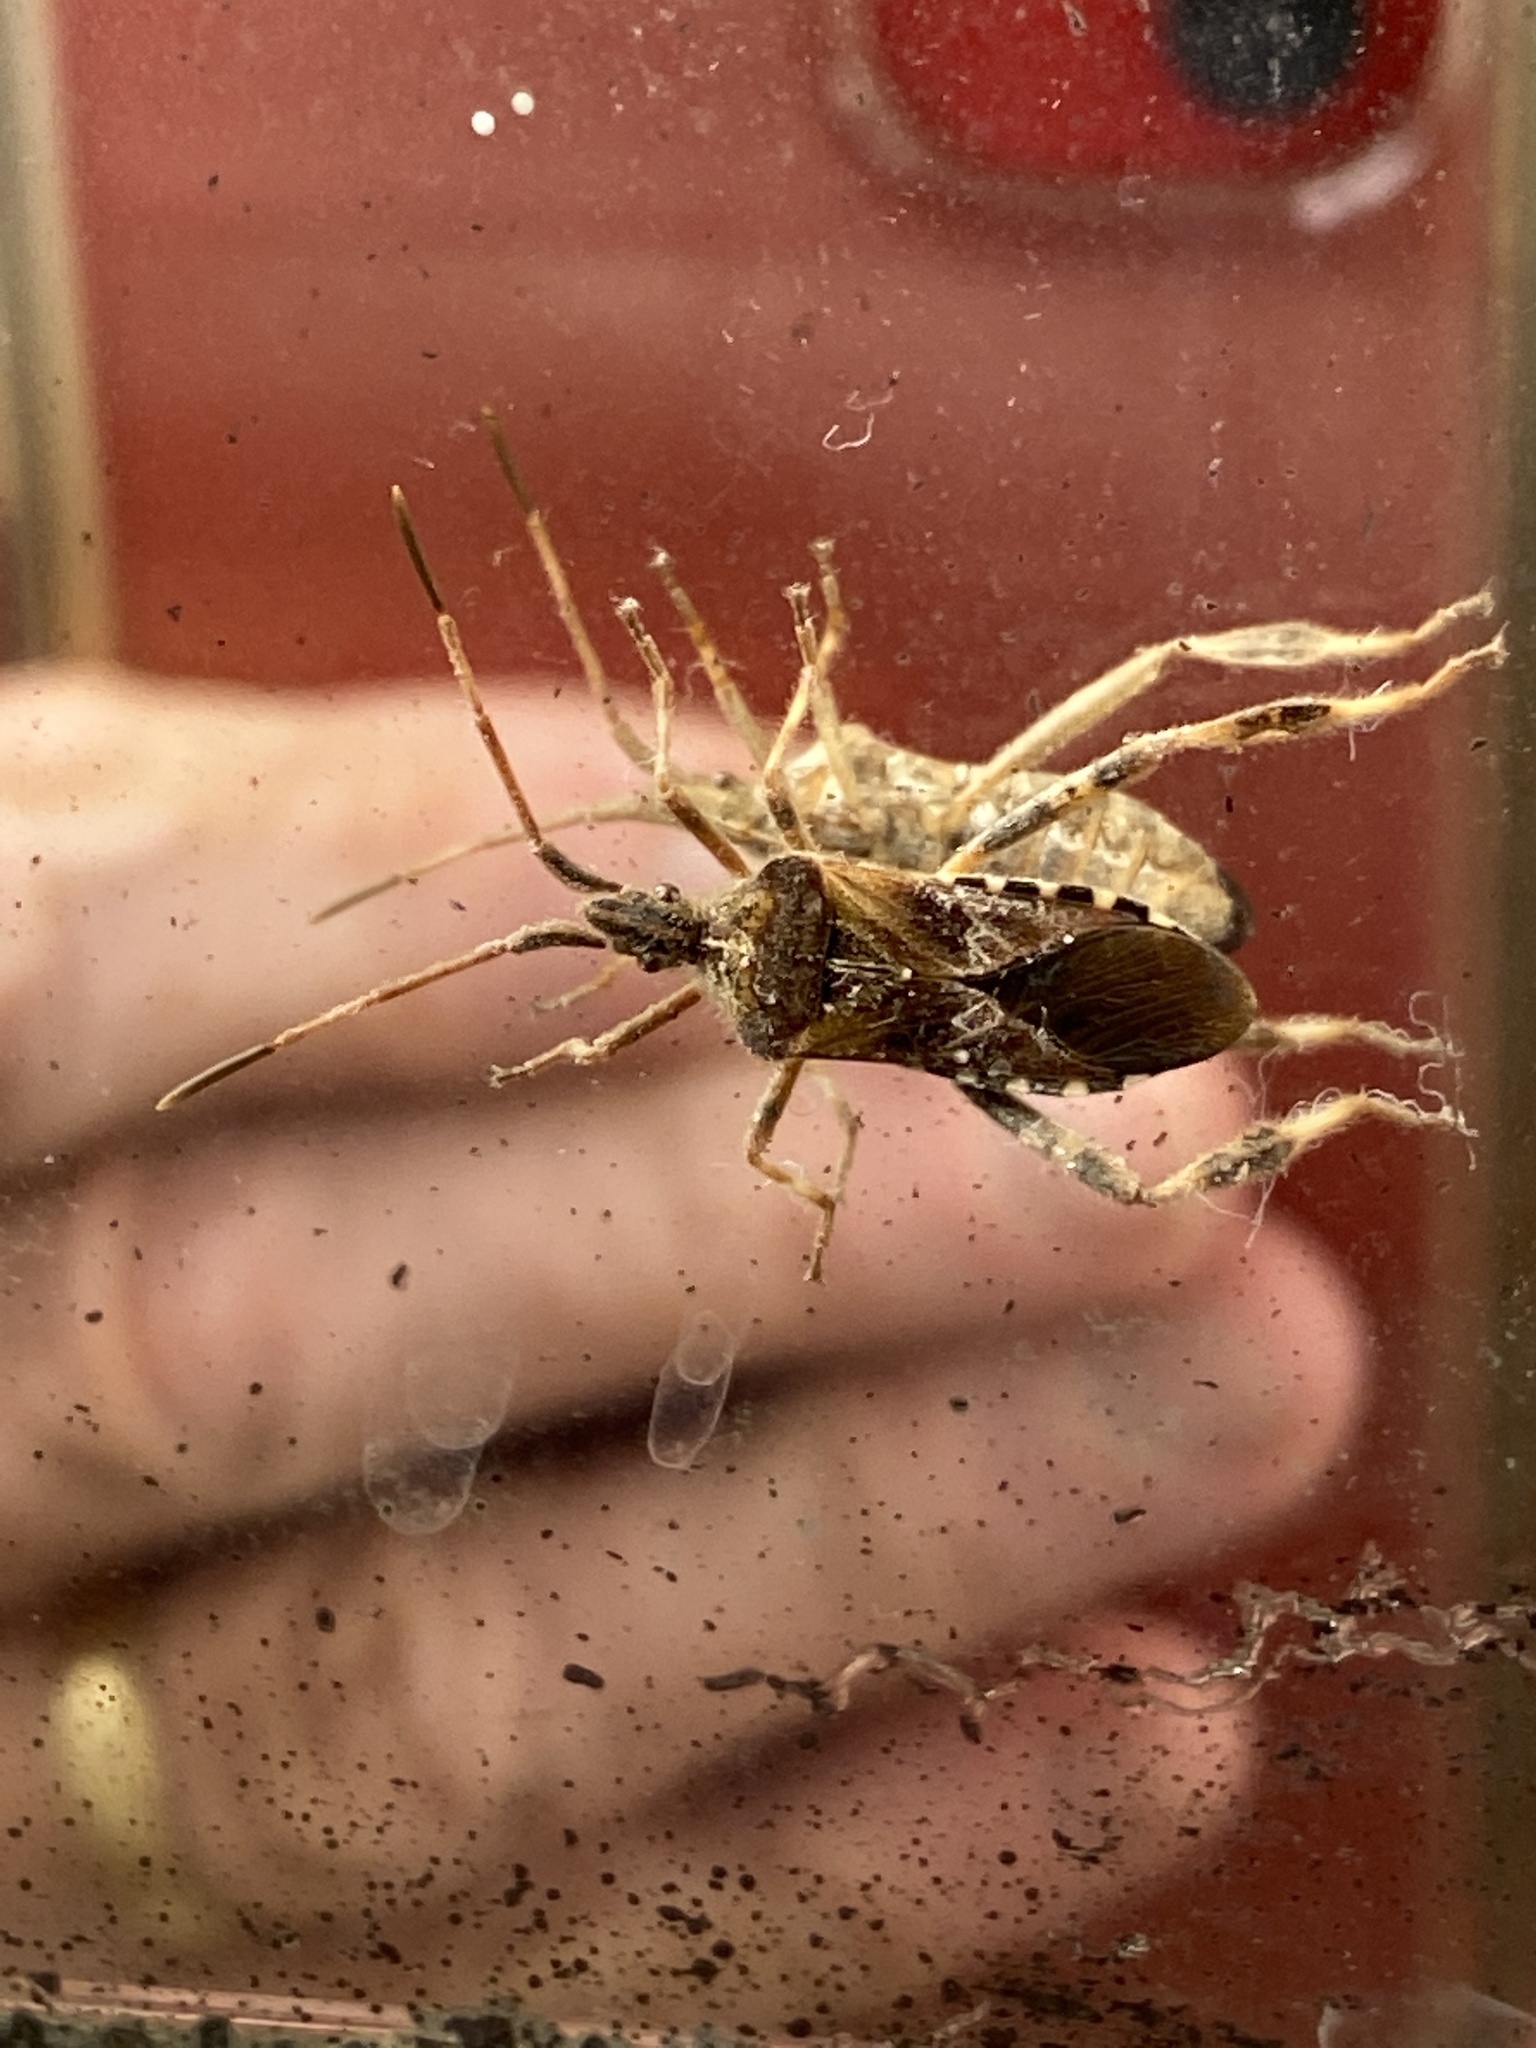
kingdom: Animalia
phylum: Arthropoda
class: Insecta
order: Hemiptera
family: Coreidae
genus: Leptoglossus
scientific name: Leptoglossus occidentalis
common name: Western conifer-seed bug
